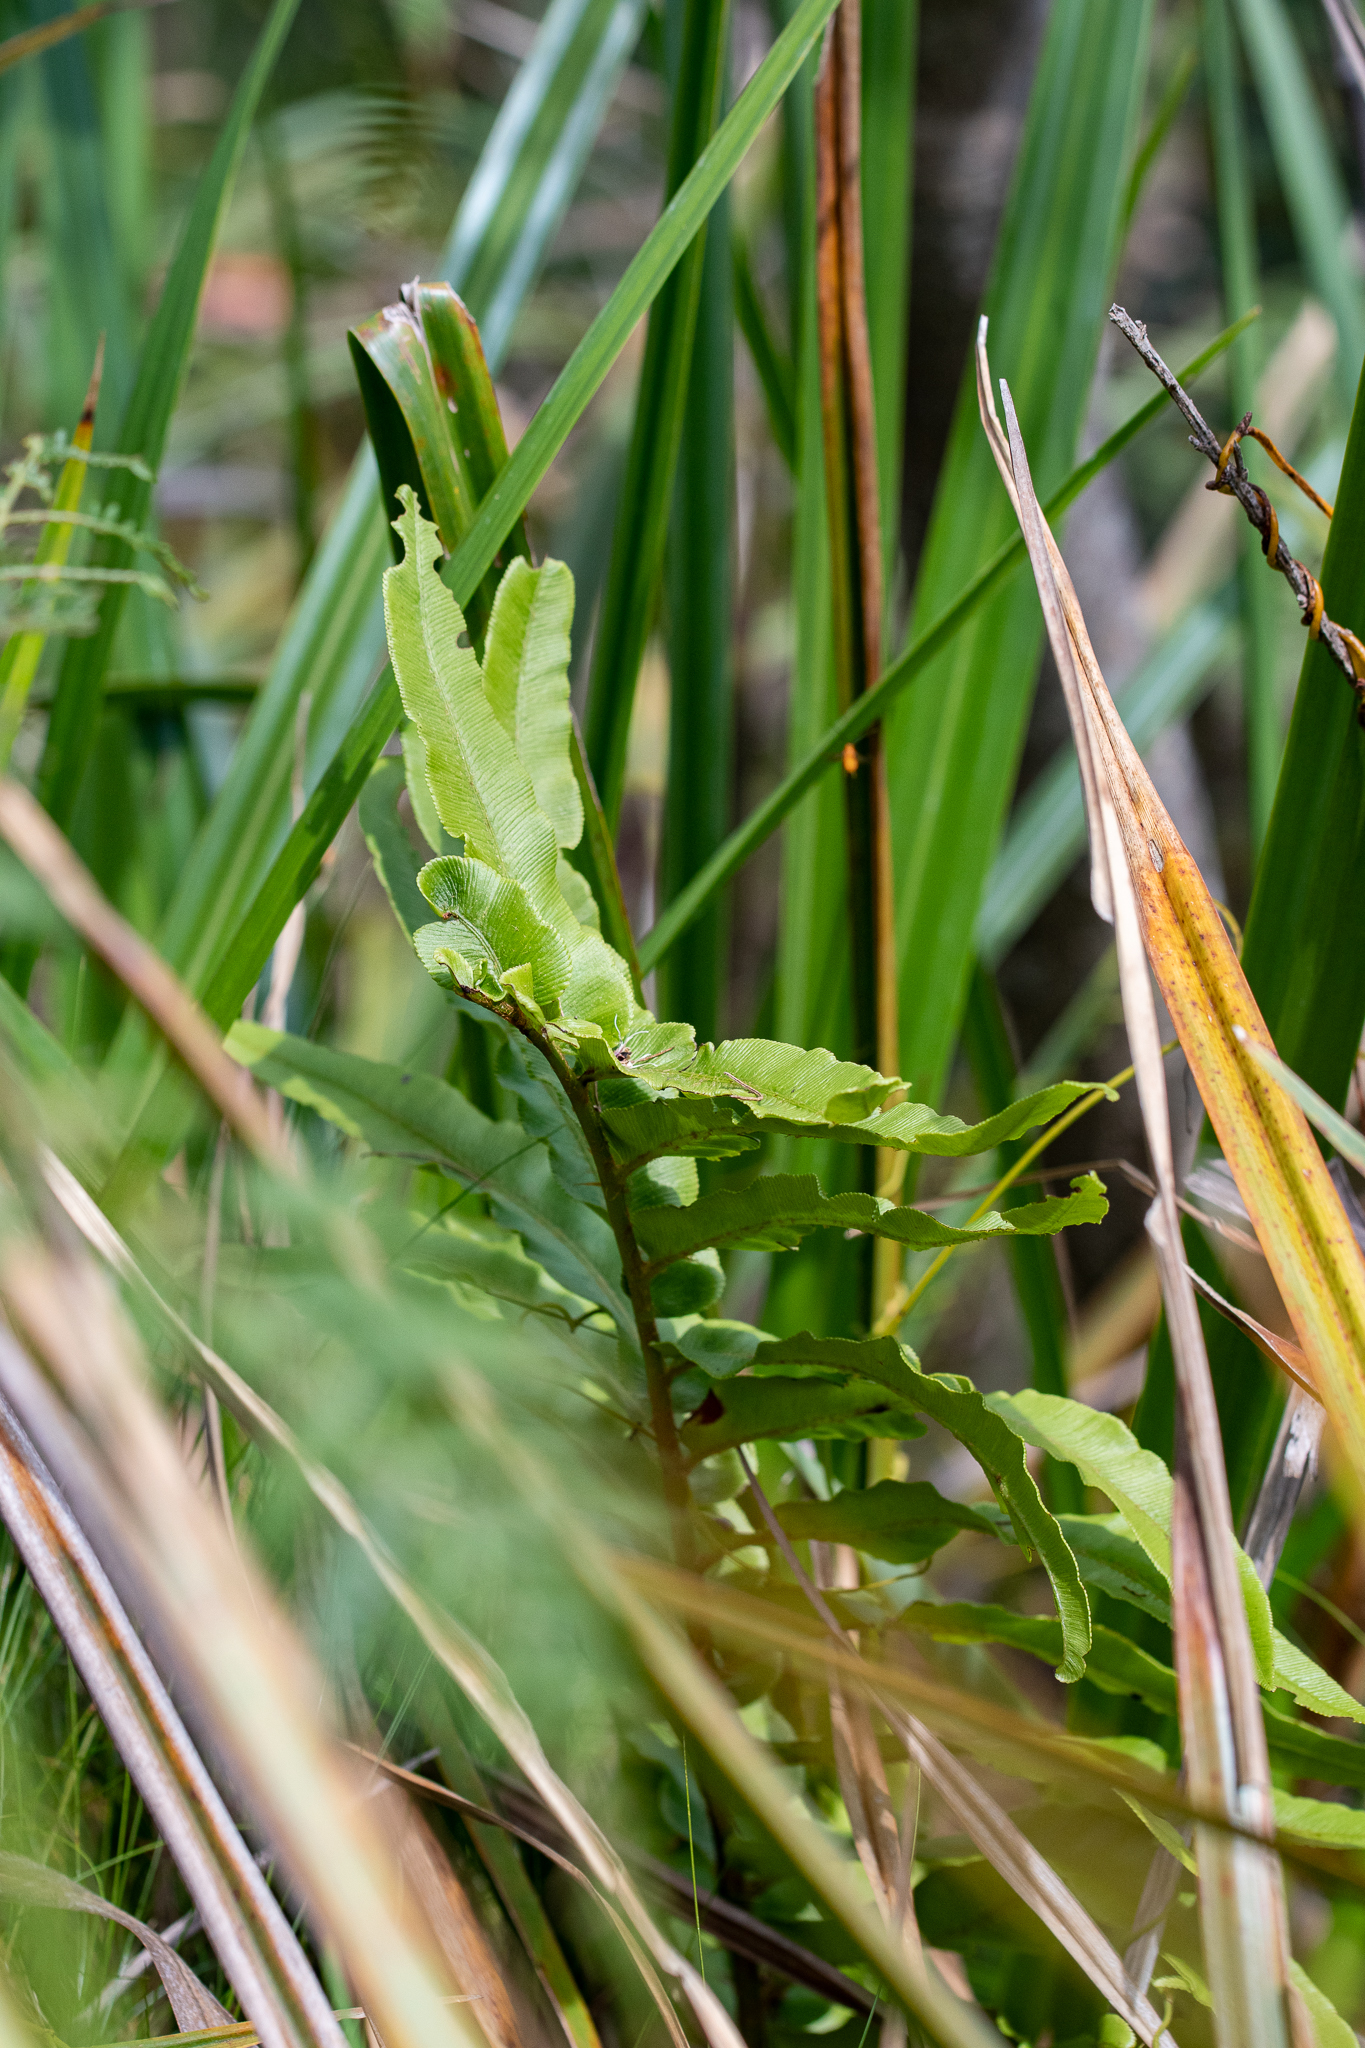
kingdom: Plantae
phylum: Tracheophyta
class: Polypodiopsida
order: Polypodiales
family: Blechnaceae
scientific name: Blechnaceae
